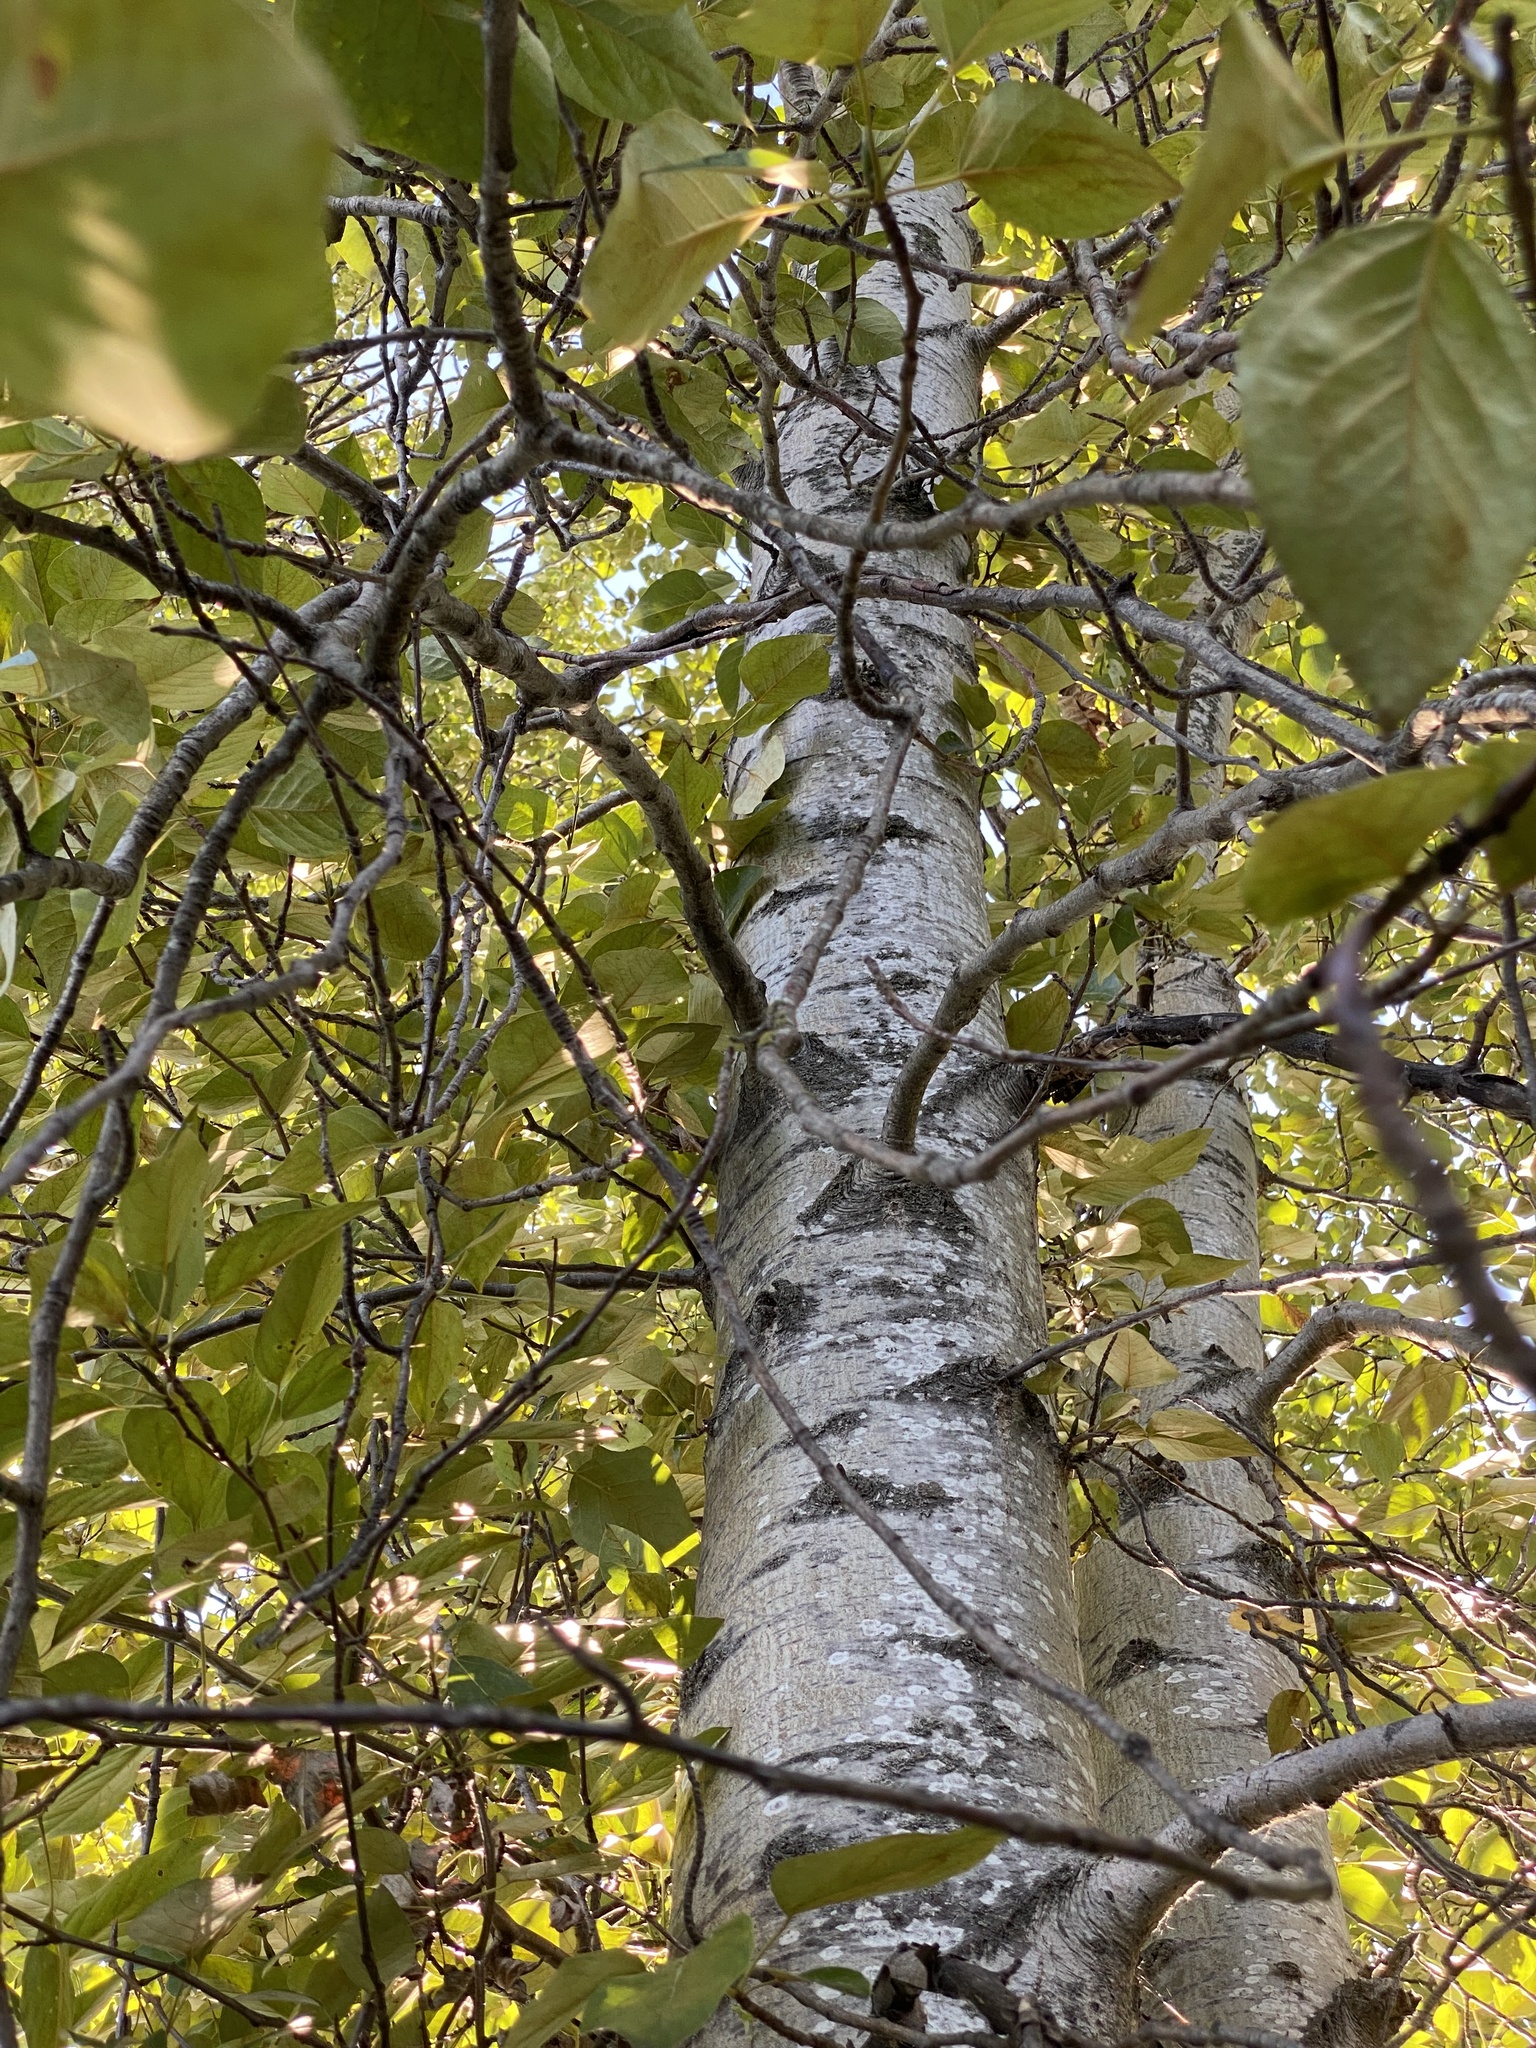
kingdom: Plantae
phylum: Tracheophyta
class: Magnoliopsida
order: Malpighiales
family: Salicaceae
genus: Populus
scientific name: Populus trichocarpa
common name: Black cottonwood
